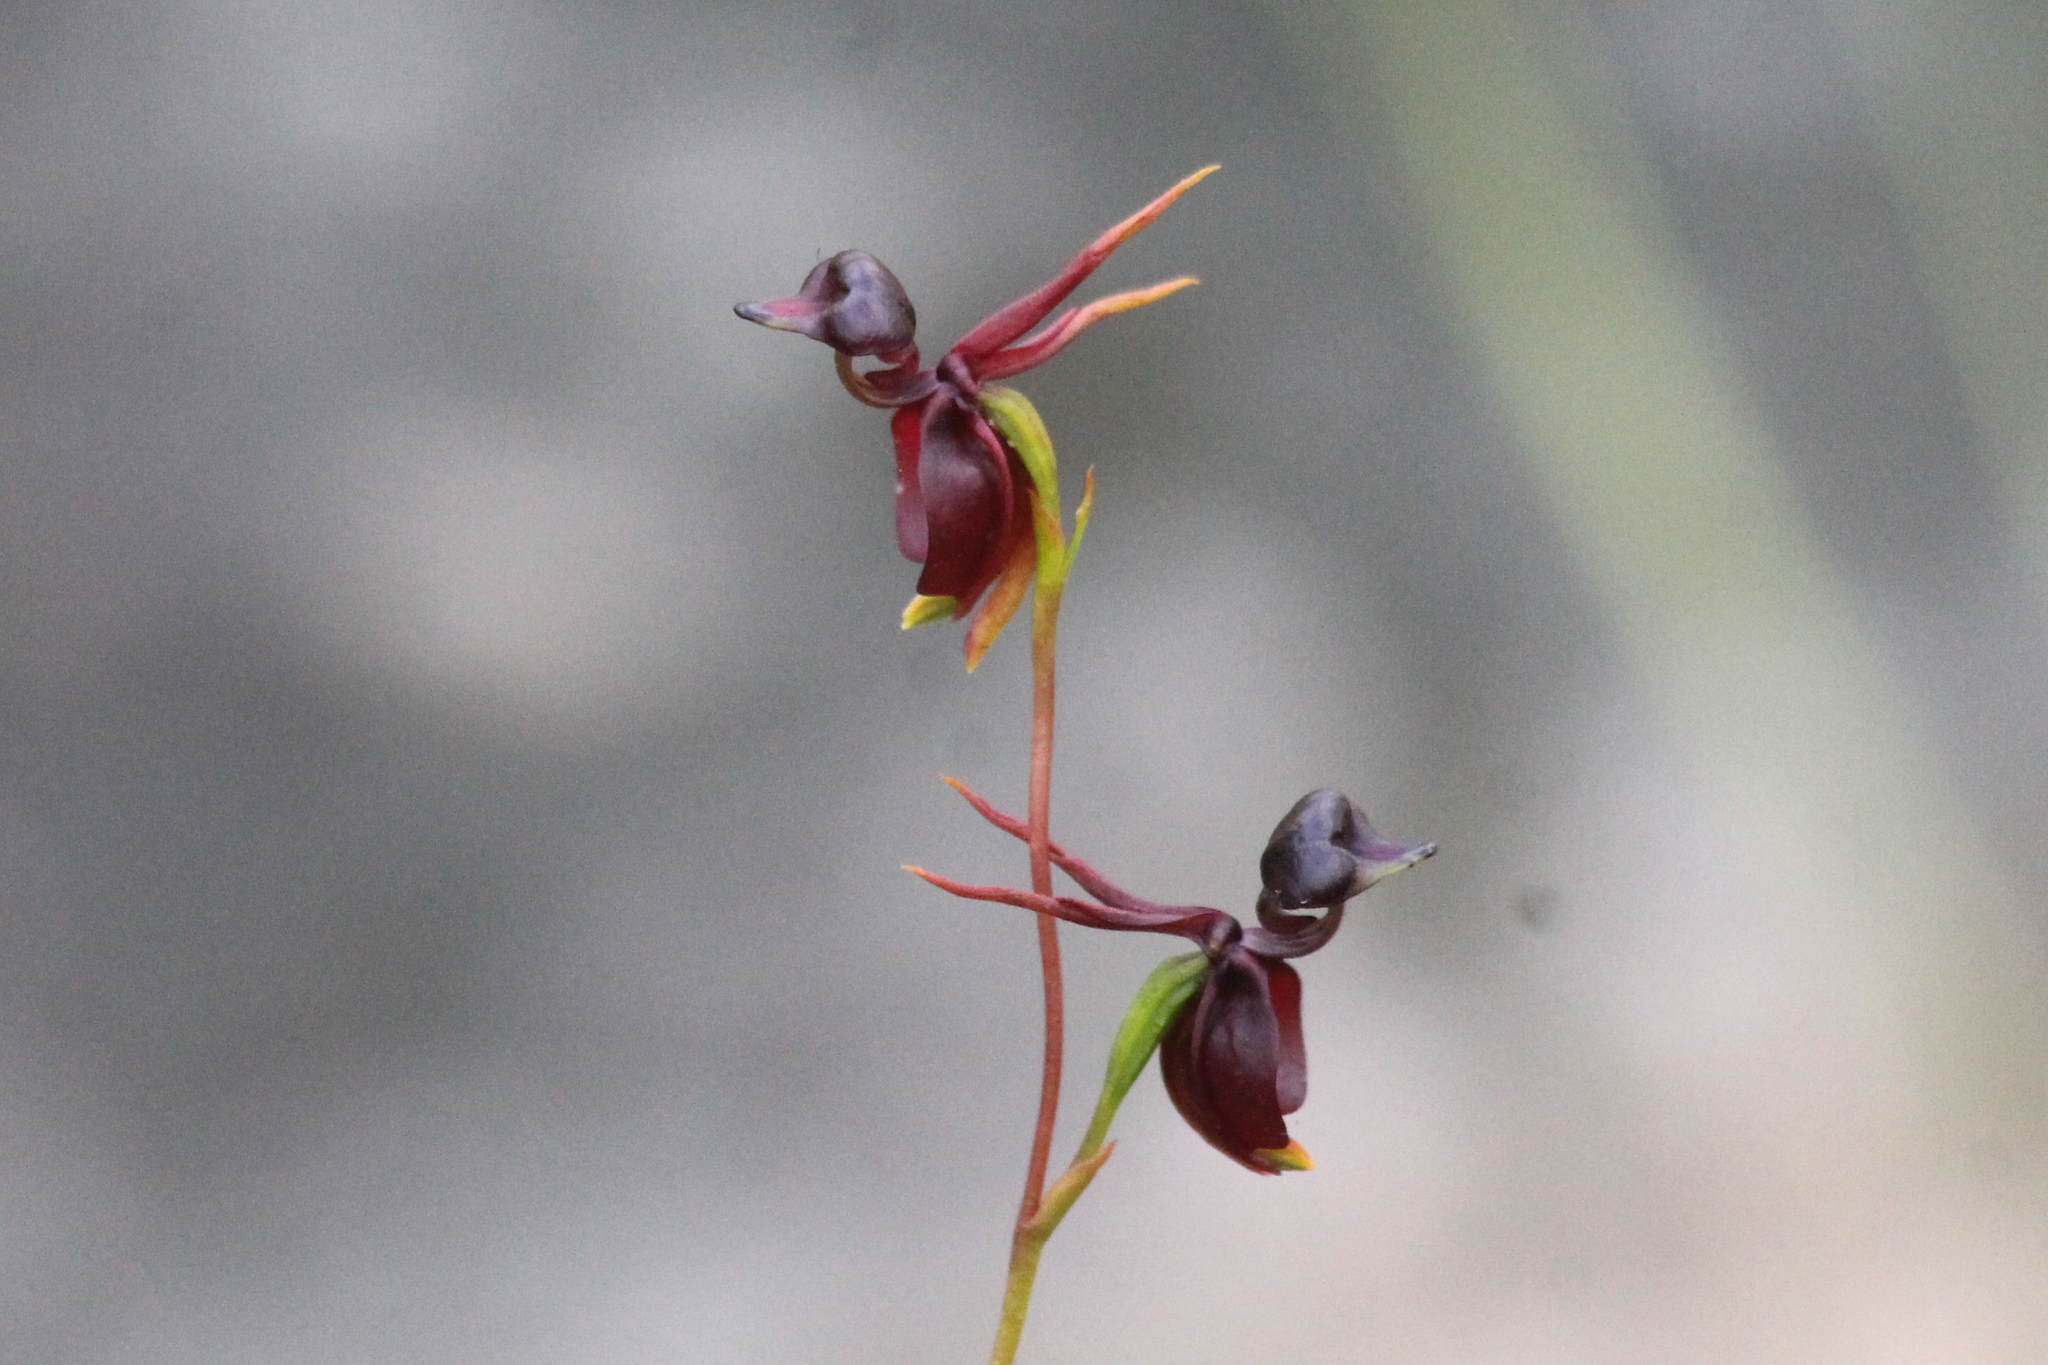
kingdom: Plantae
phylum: Tracheophyta
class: Liliopsida
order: Asparagales
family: Orchidaceae
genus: Caleana
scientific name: Caleana major
